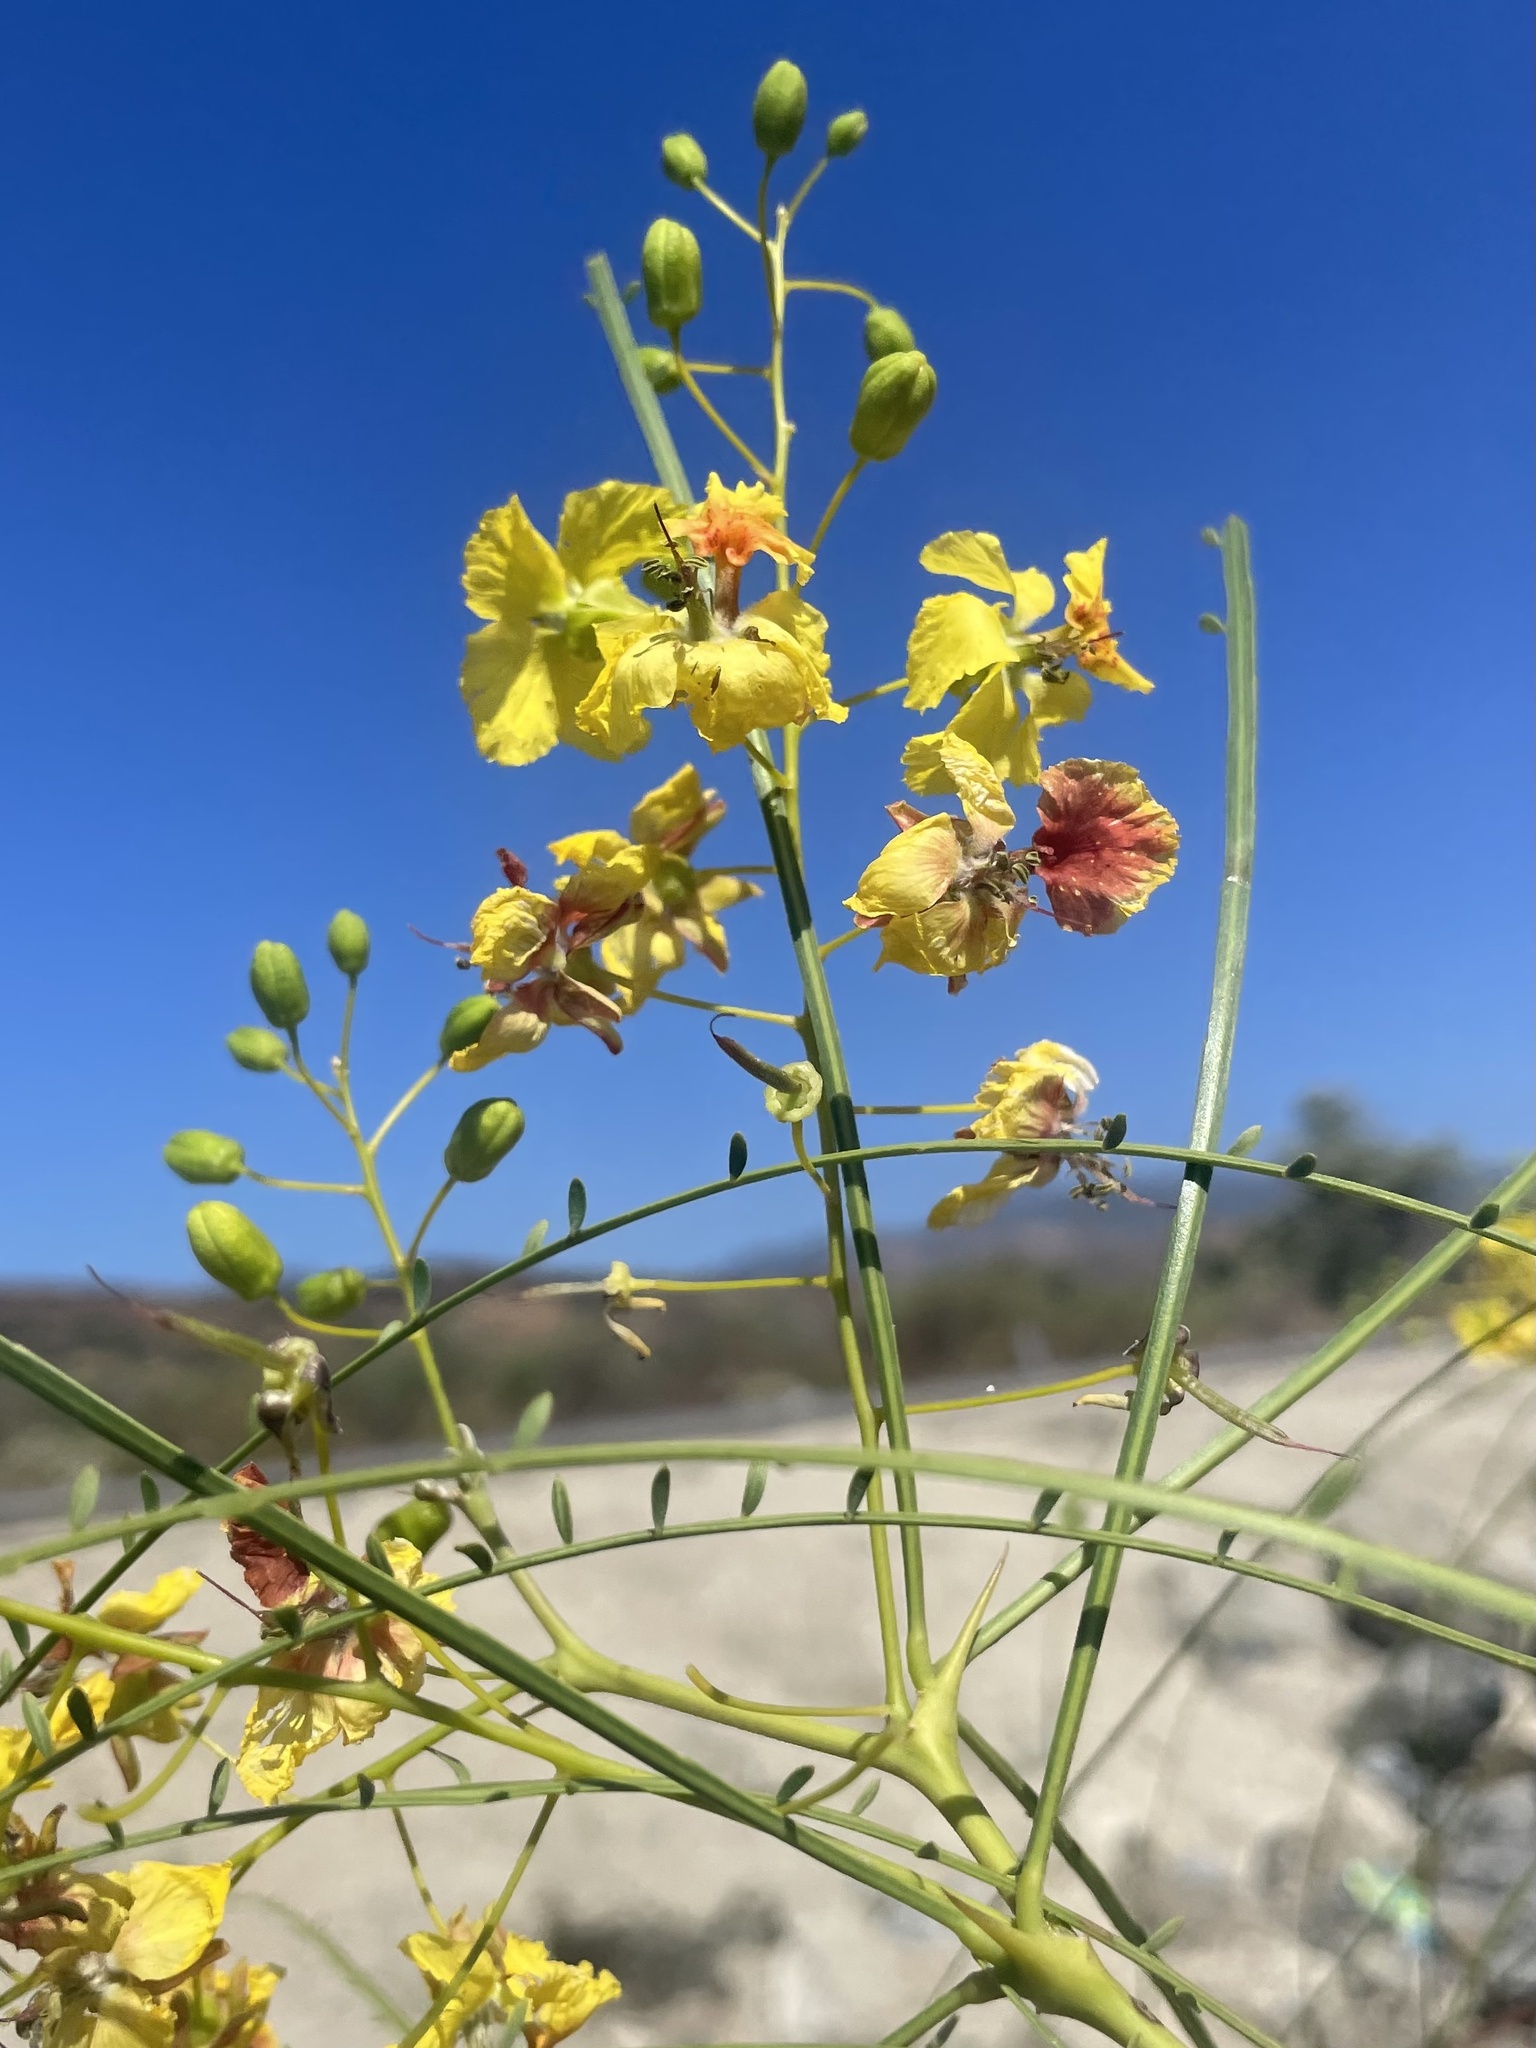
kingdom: Plantae
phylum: Tracheophyta
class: Magnoliopsida
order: Fabales
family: Fabaceae
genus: Parkinsonia
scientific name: Parkinsonia aculeata
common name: Jerusalem thorn
